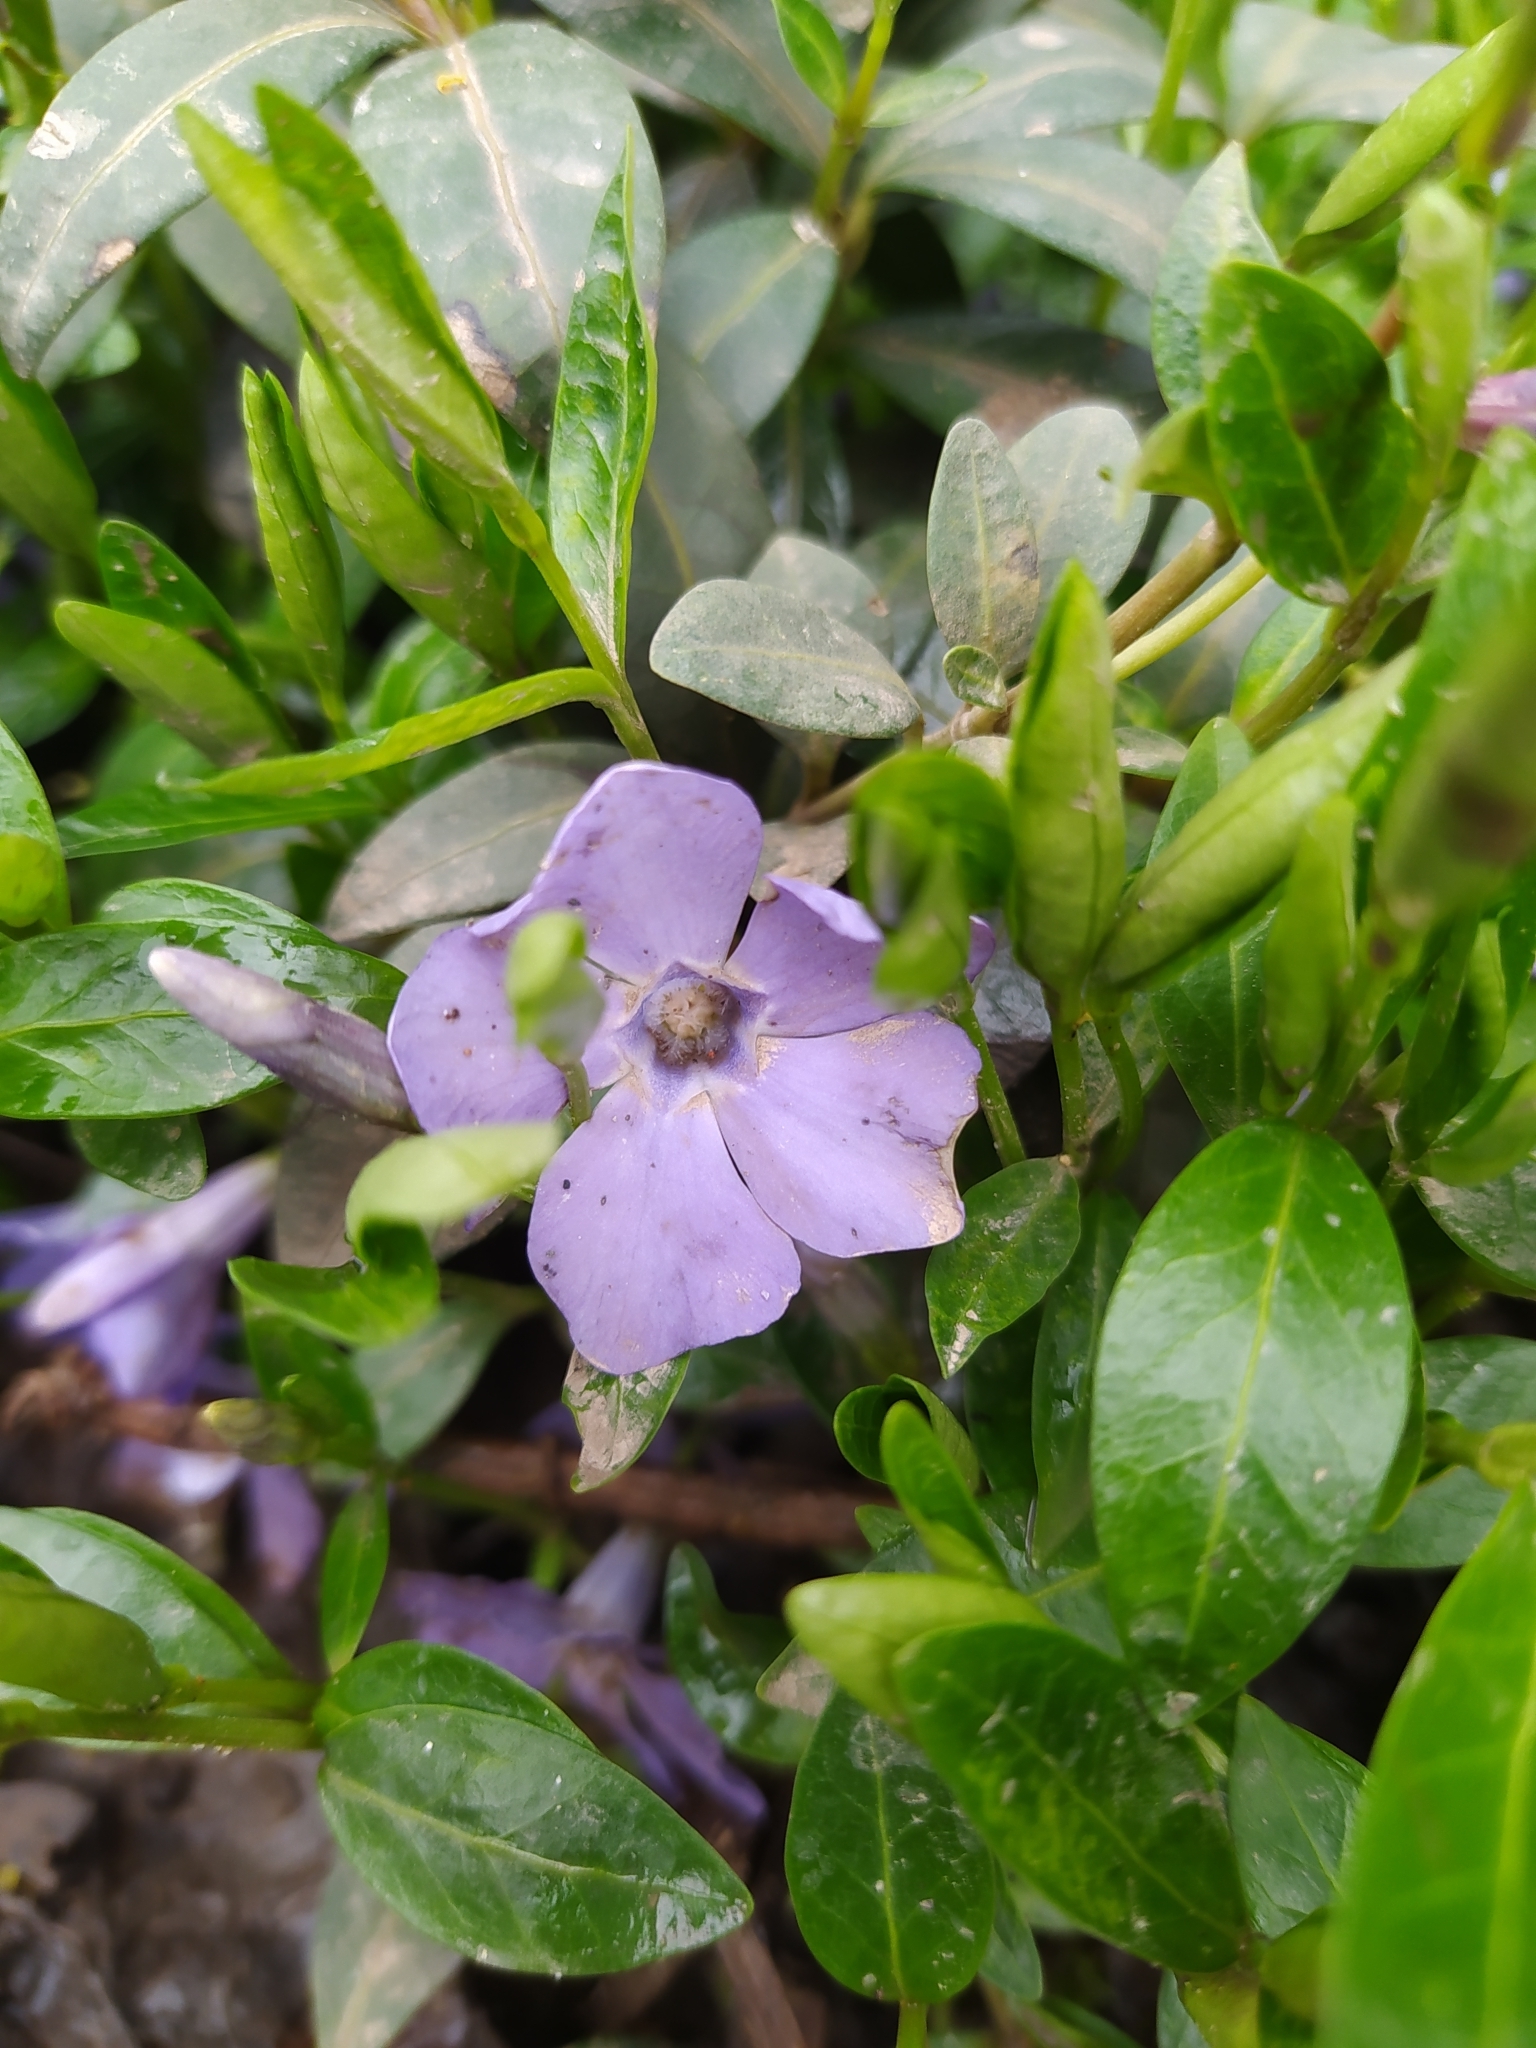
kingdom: Plantae
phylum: Tracheophyta
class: Magnoliopsida
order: Gentianales
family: Apocynaceae
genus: Vinca
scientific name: Vinca minor
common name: Lesser periwinkle
